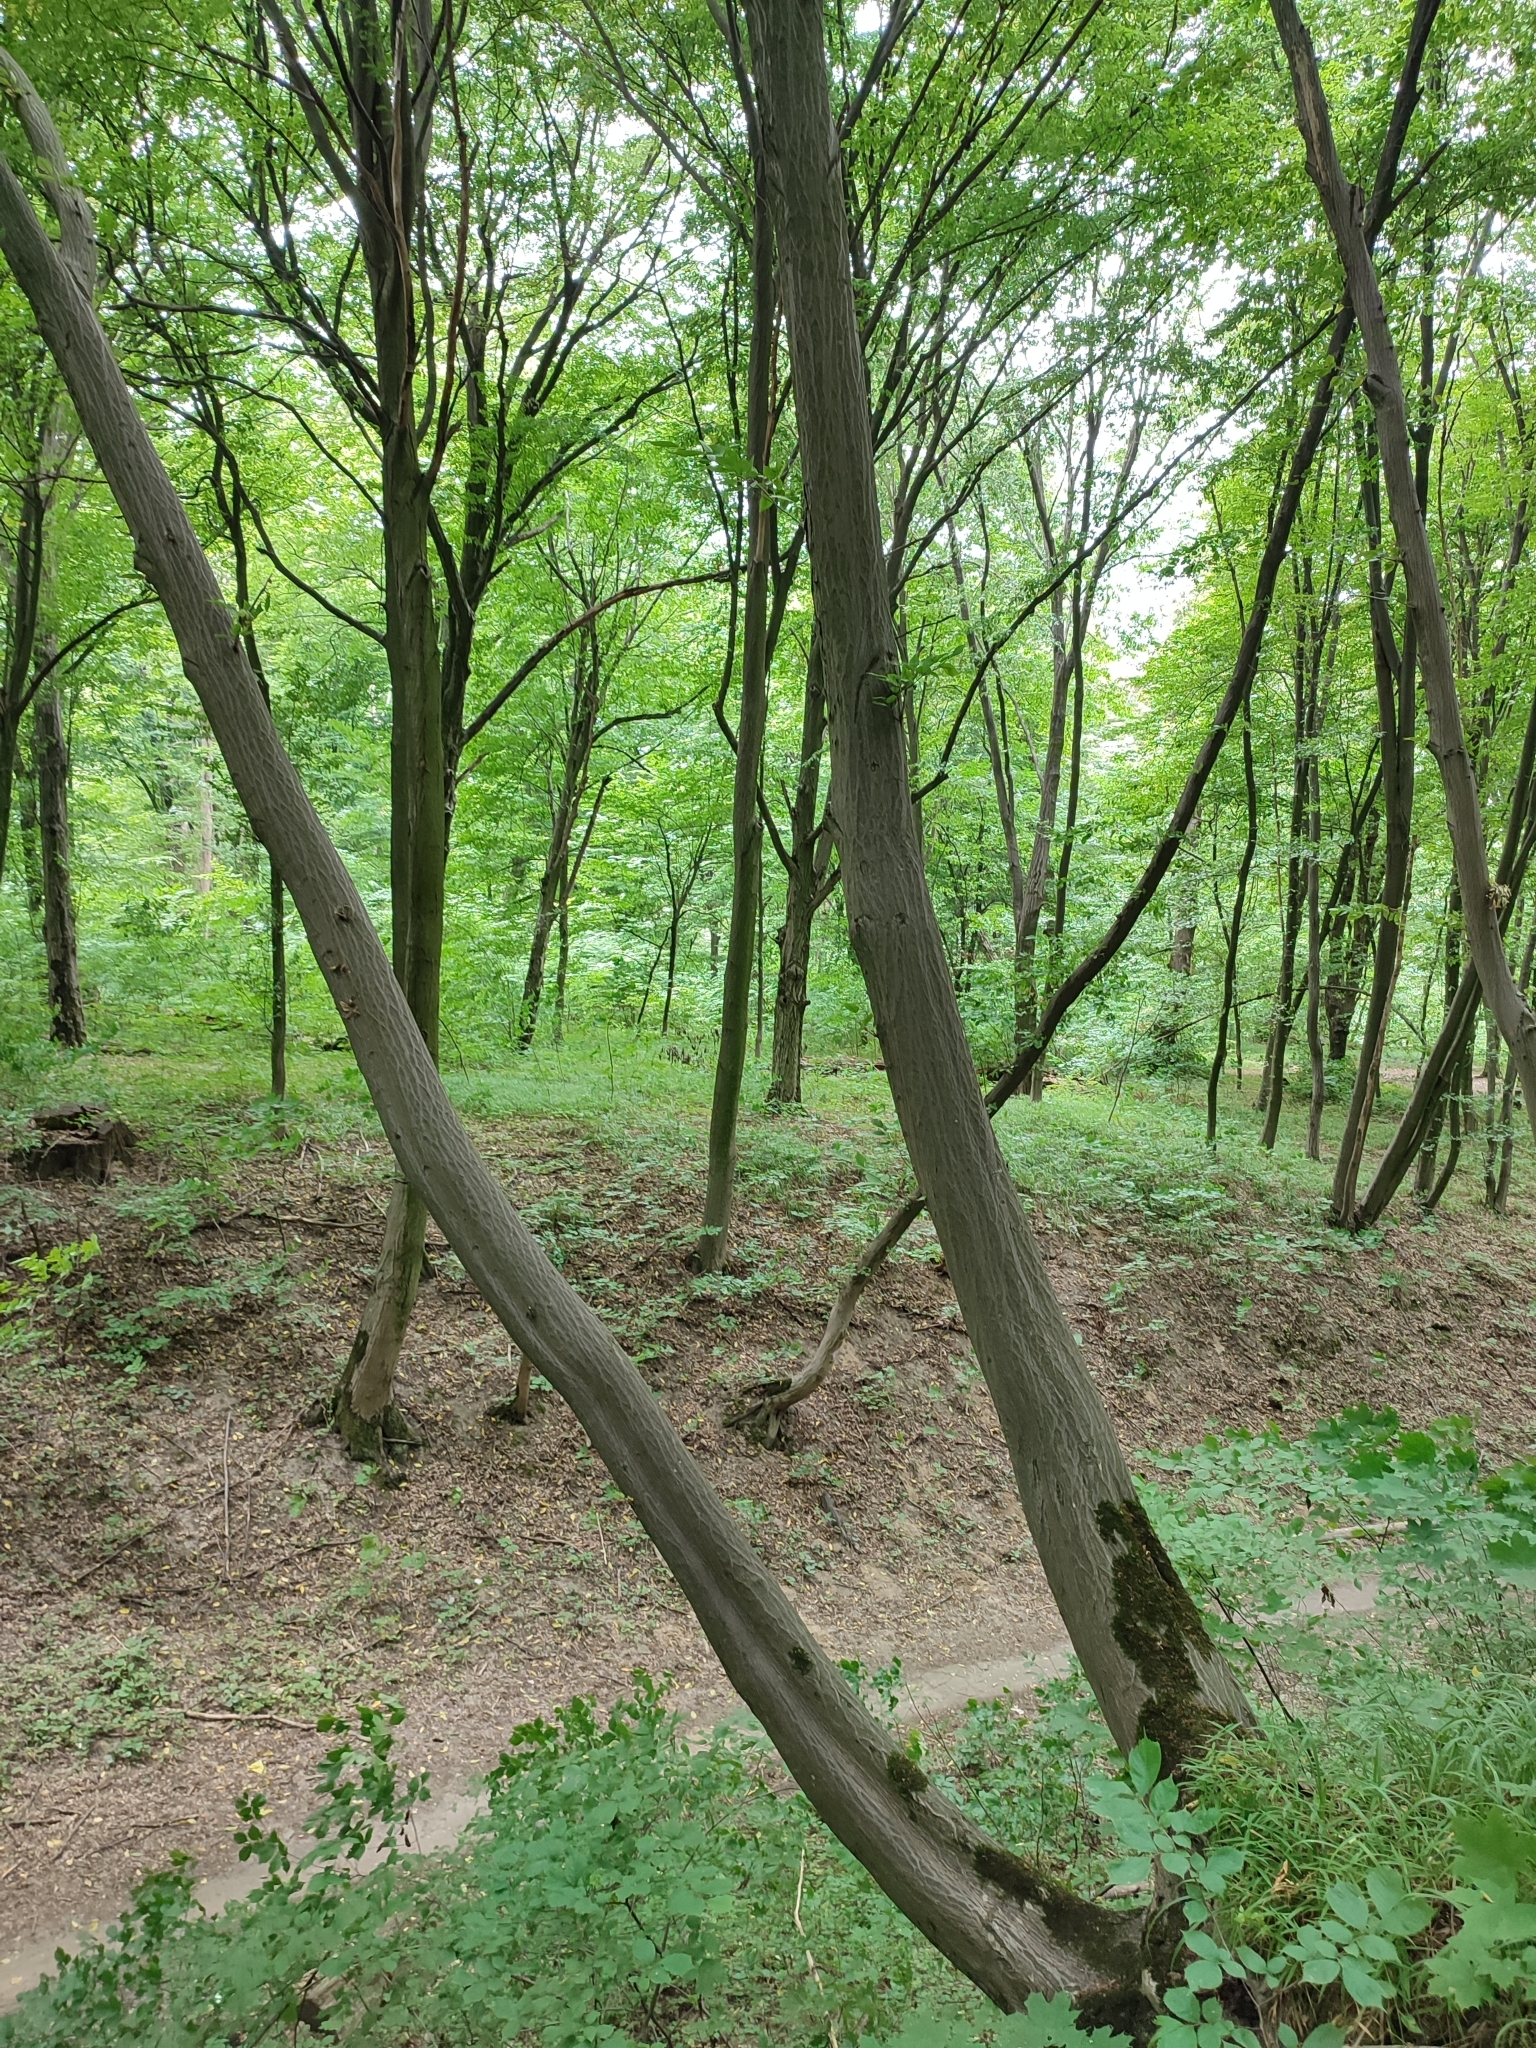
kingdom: Plantae
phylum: Tracheophyta
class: Magnoliopsida
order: Fagales
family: Betulaceae
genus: Carpinus
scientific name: Carpinus betulus
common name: Hornbeam
